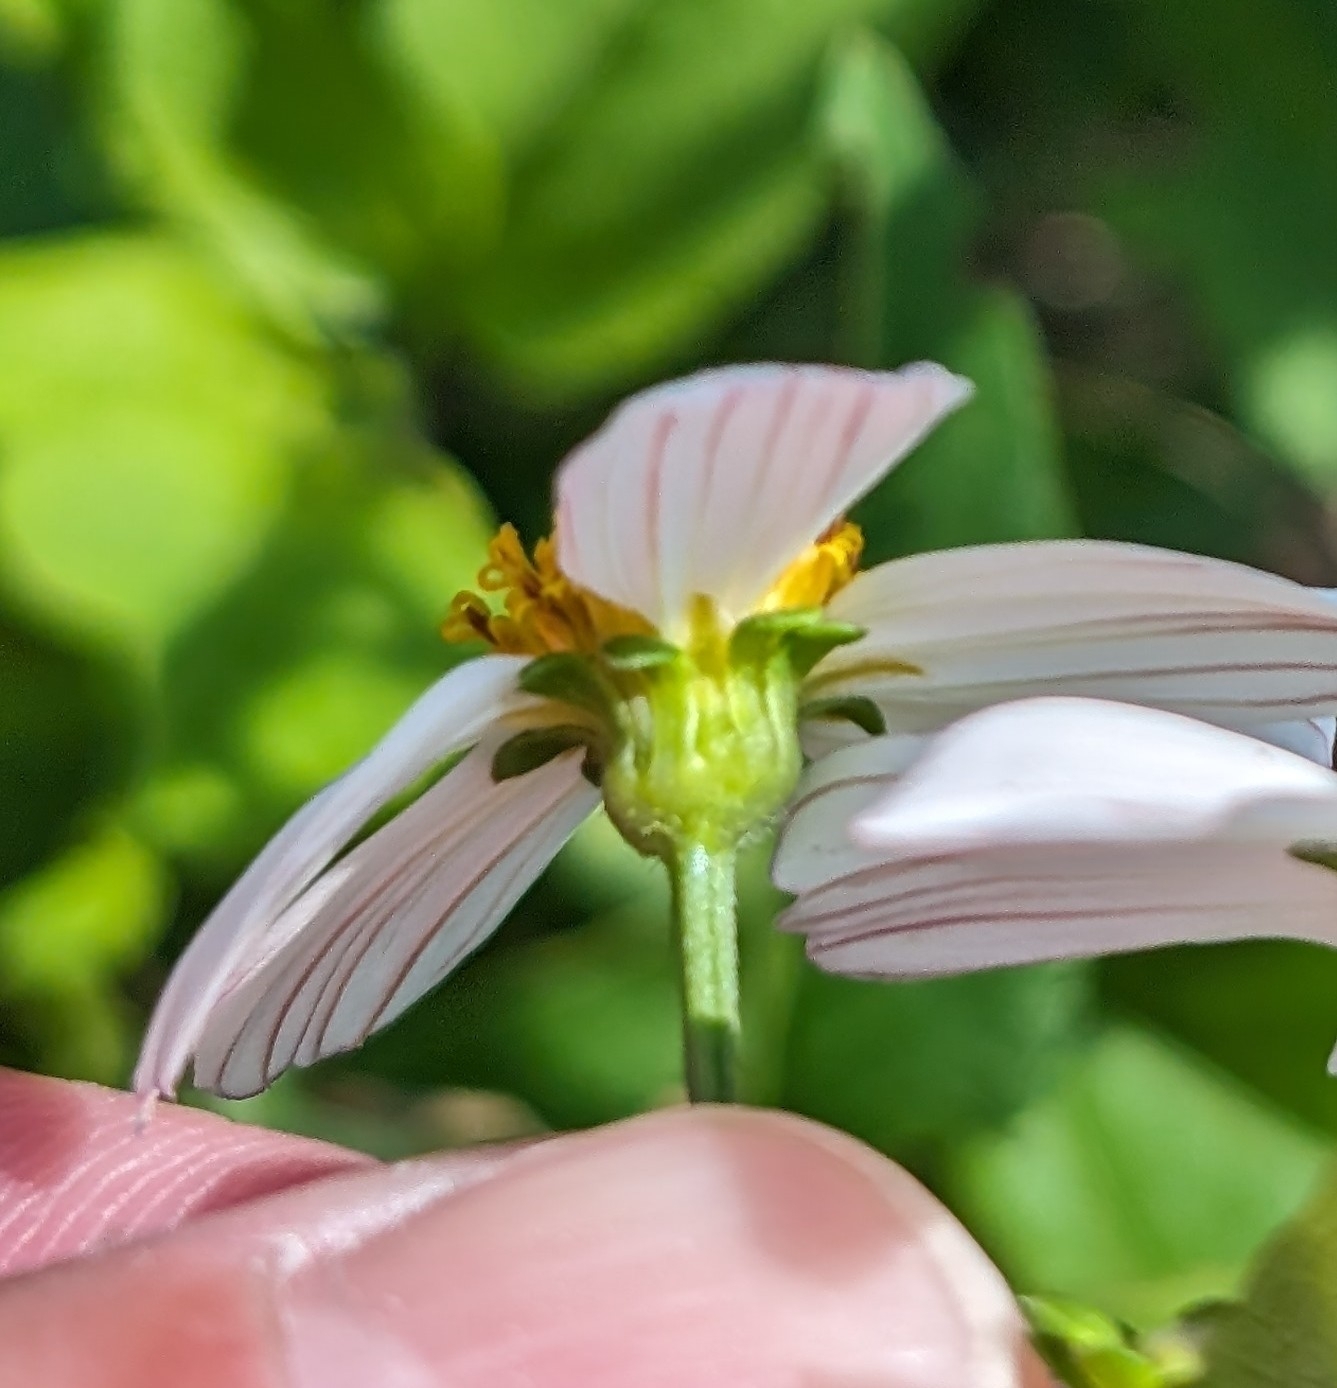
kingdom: Plantae
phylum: Tracheophyta
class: Magnoliopsida
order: Asterales
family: Asteraceae
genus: Bidens
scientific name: Bidens alba
